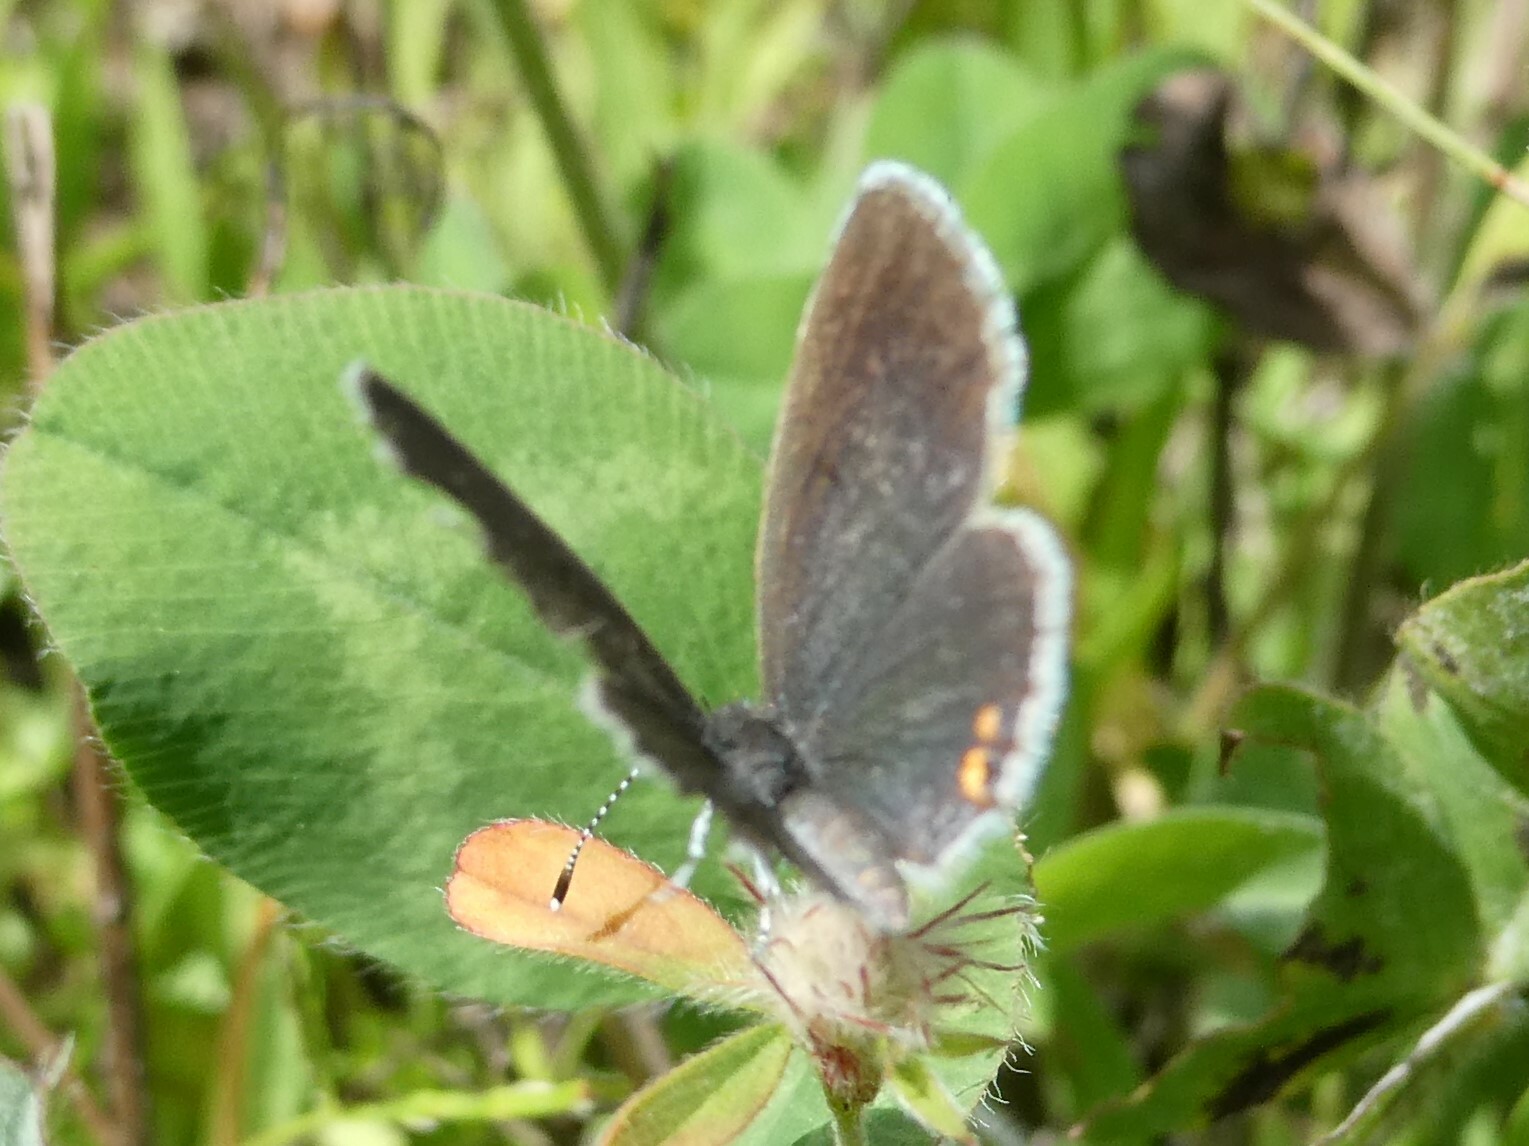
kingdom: Animalia
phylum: Arthropoda
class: Insecta
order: Lepidoptera
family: Lycaenidae
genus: Elkalyce
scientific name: Elkalyce comyntas
